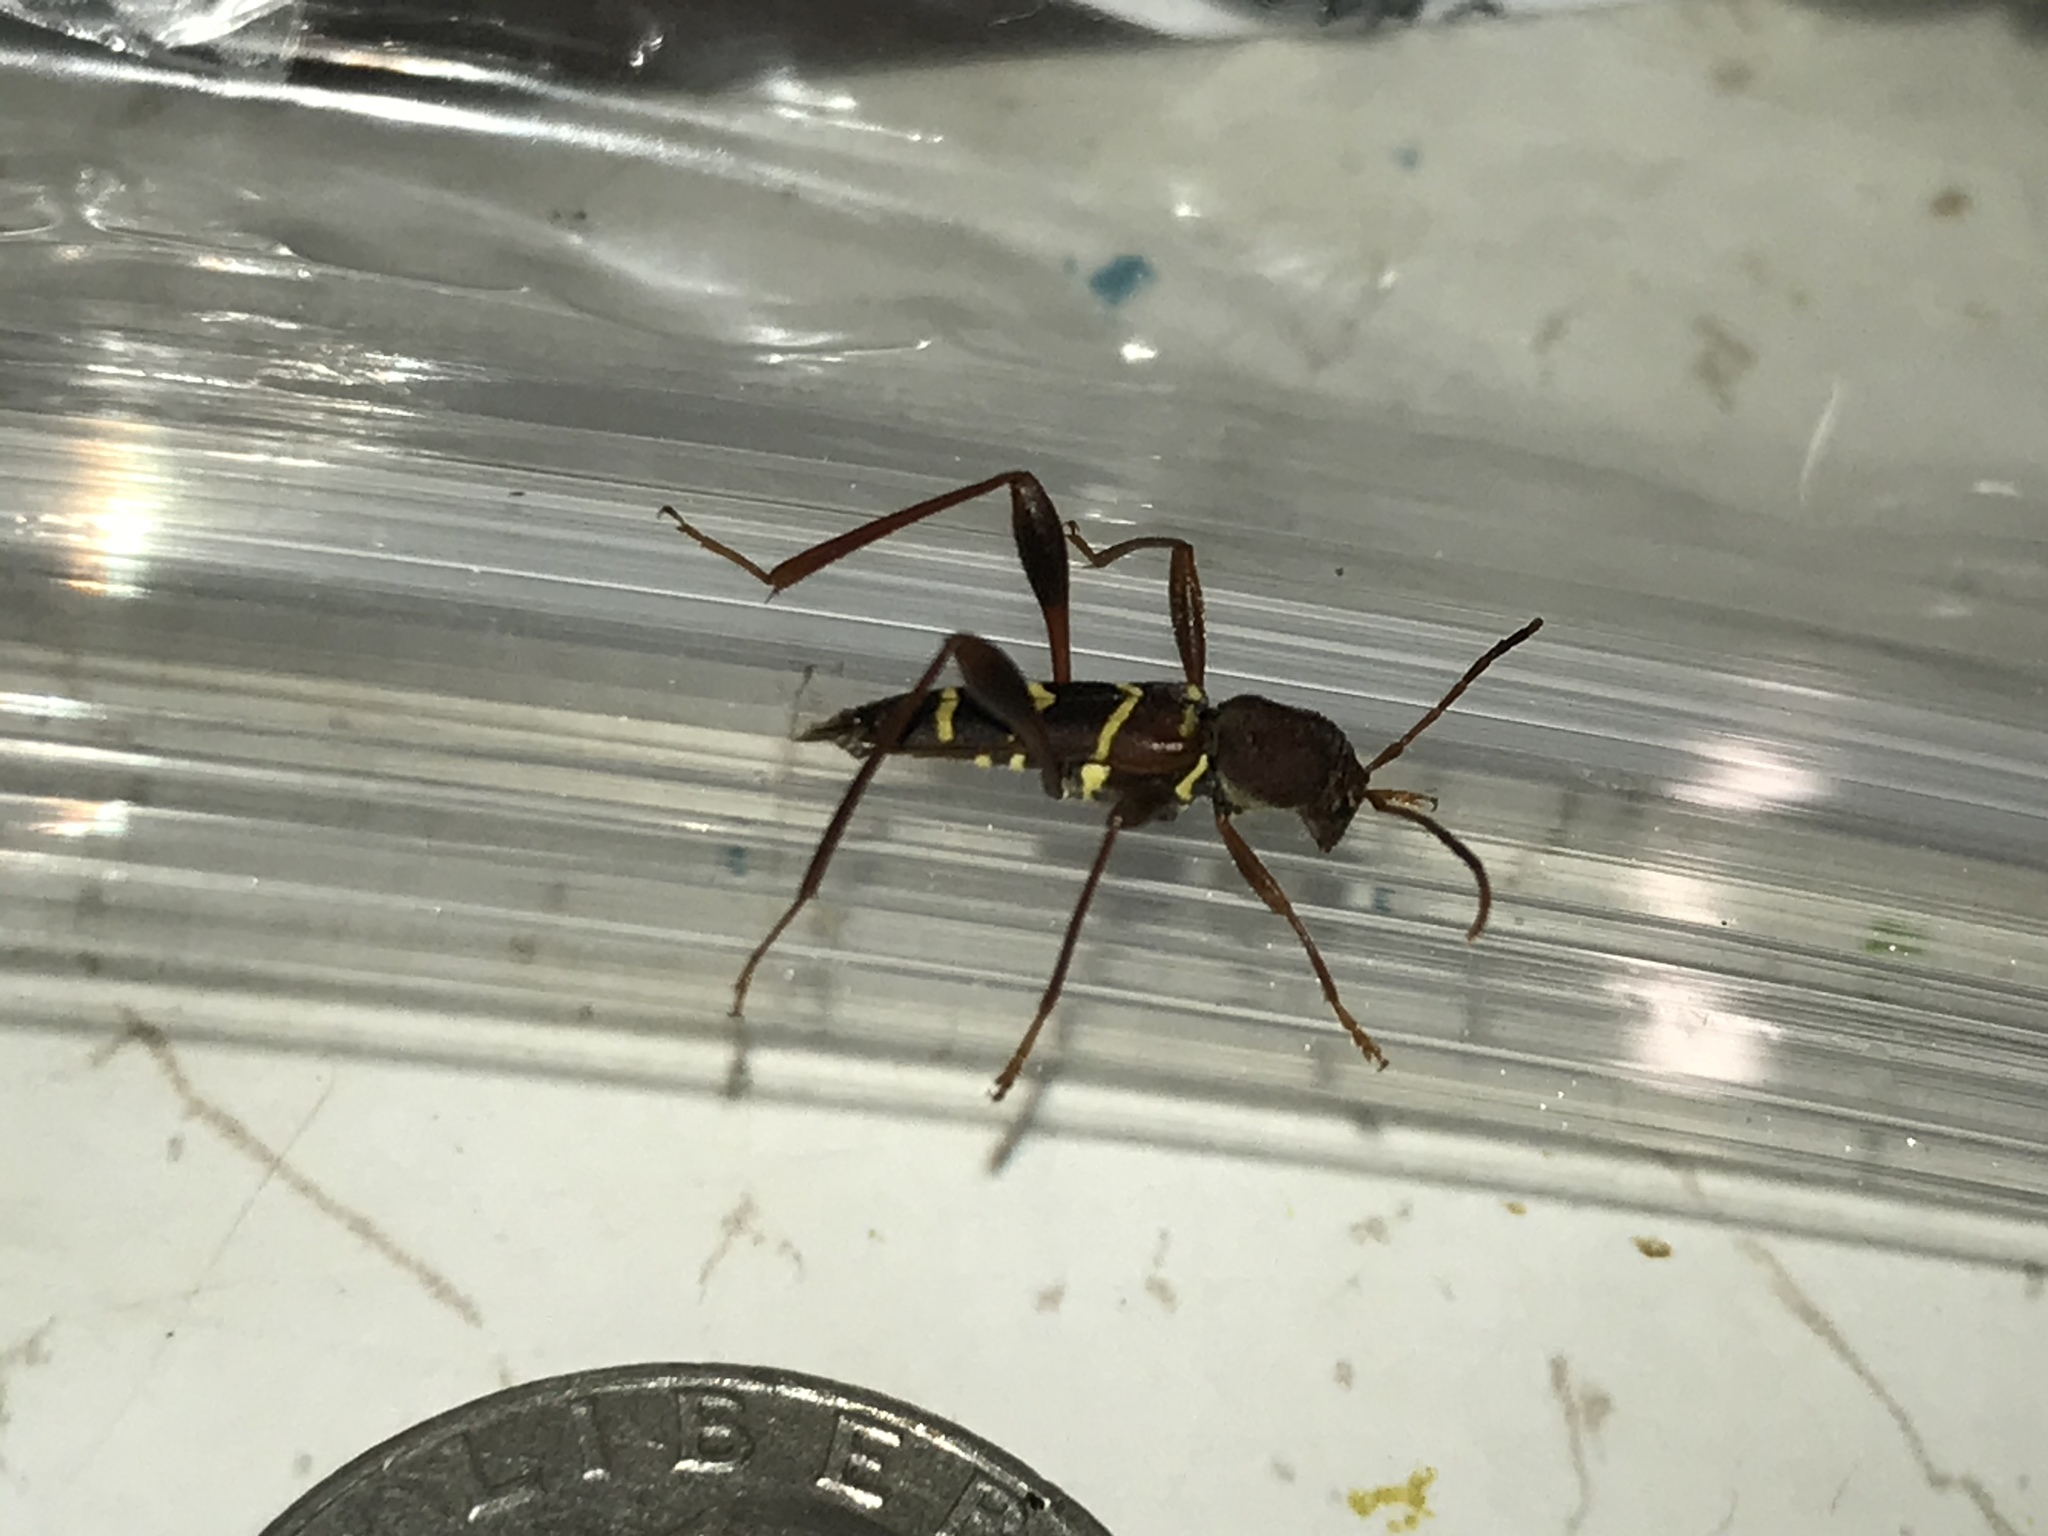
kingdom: Animalia
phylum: Arthropoda
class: Insecta
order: Coleoptera
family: Cerambycidae
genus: Neoclytus
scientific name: Neoclytus acuminatus
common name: Read-headed ash borer
